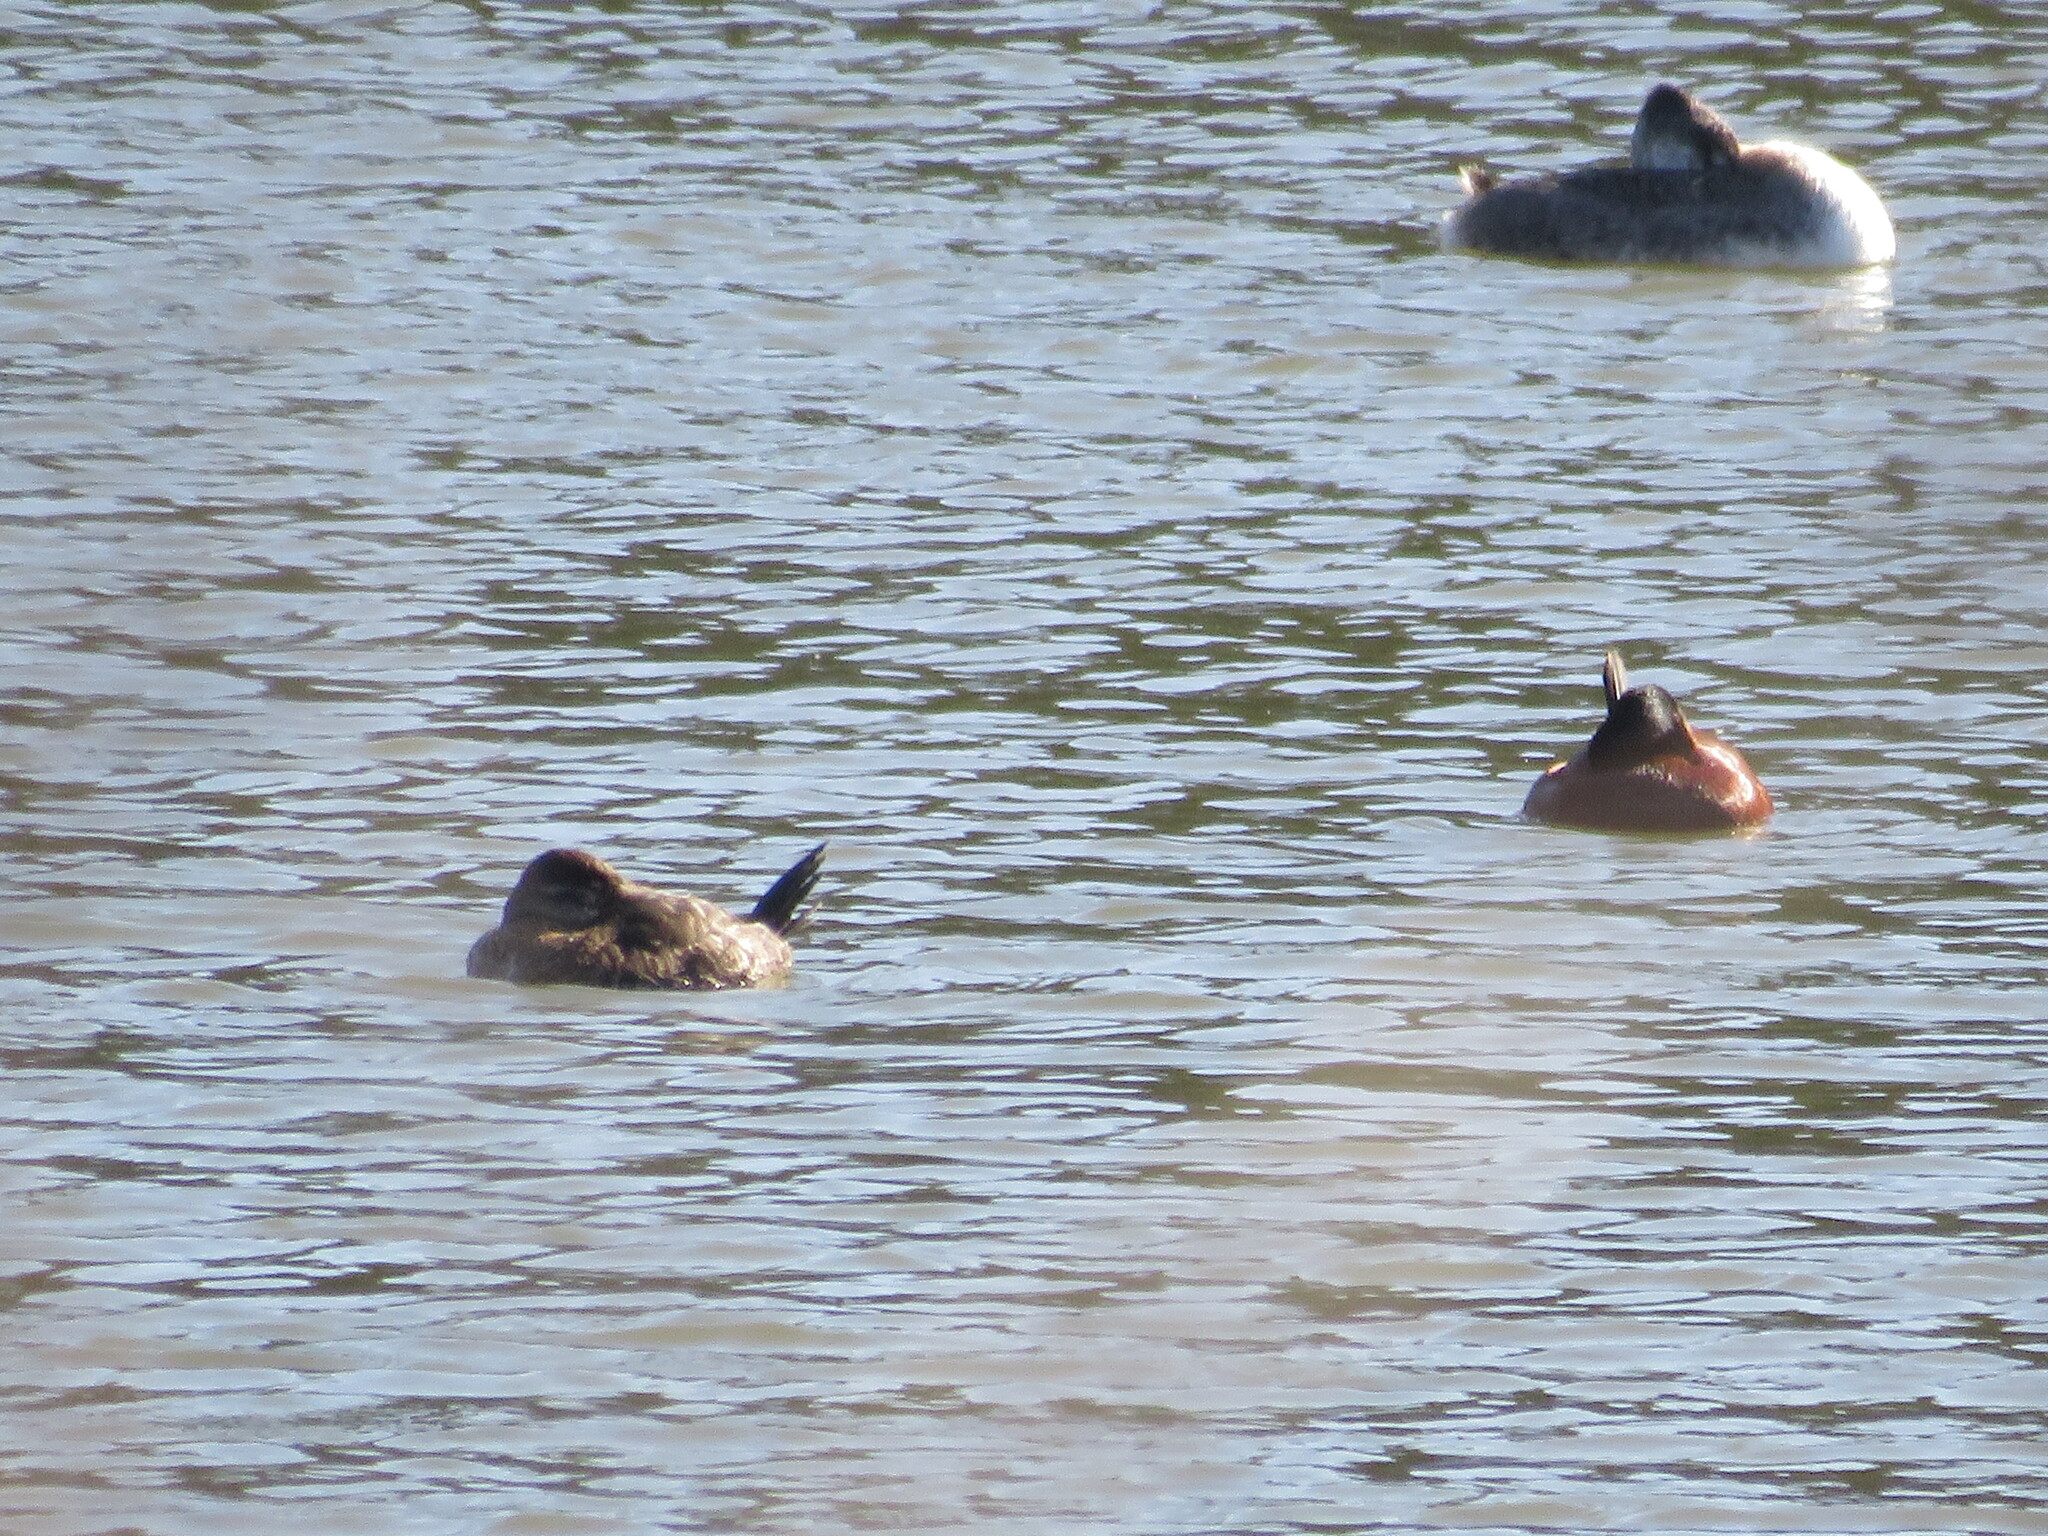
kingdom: Animalia
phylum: Chordata
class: Aves
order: Anseriformes
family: Anatidae
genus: Oxyura
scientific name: Oxyura vittata
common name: Lake duck
